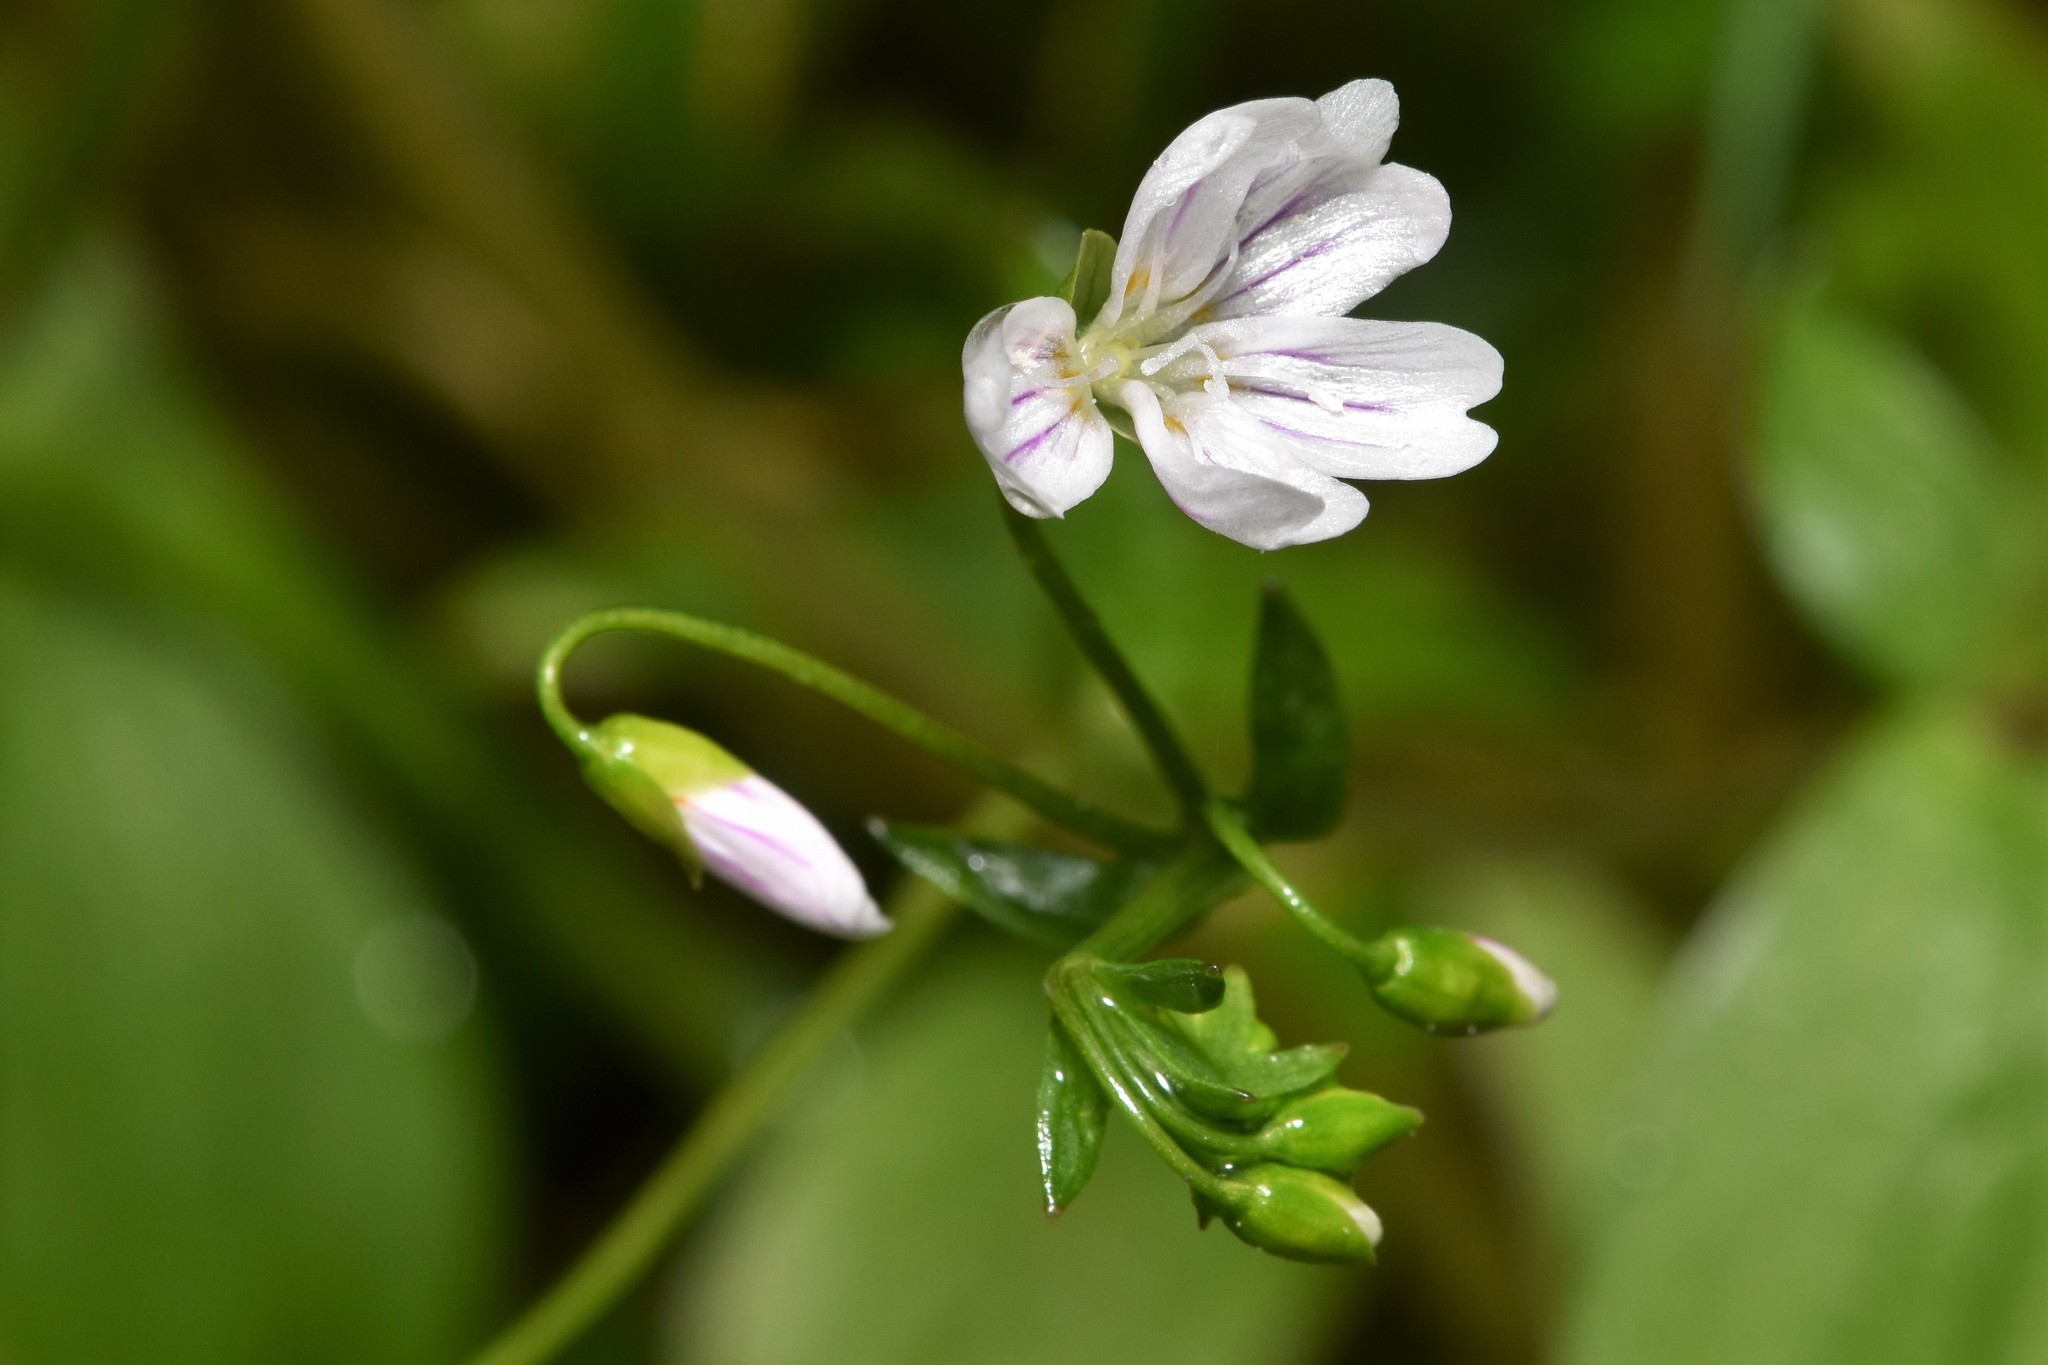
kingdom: Plantae
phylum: Tracheophyta
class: Magnoliopsida
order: Caryophyllales
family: Montiaceae
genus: Claytonia
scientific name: Claytonia sibirica
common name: Pink purslane
